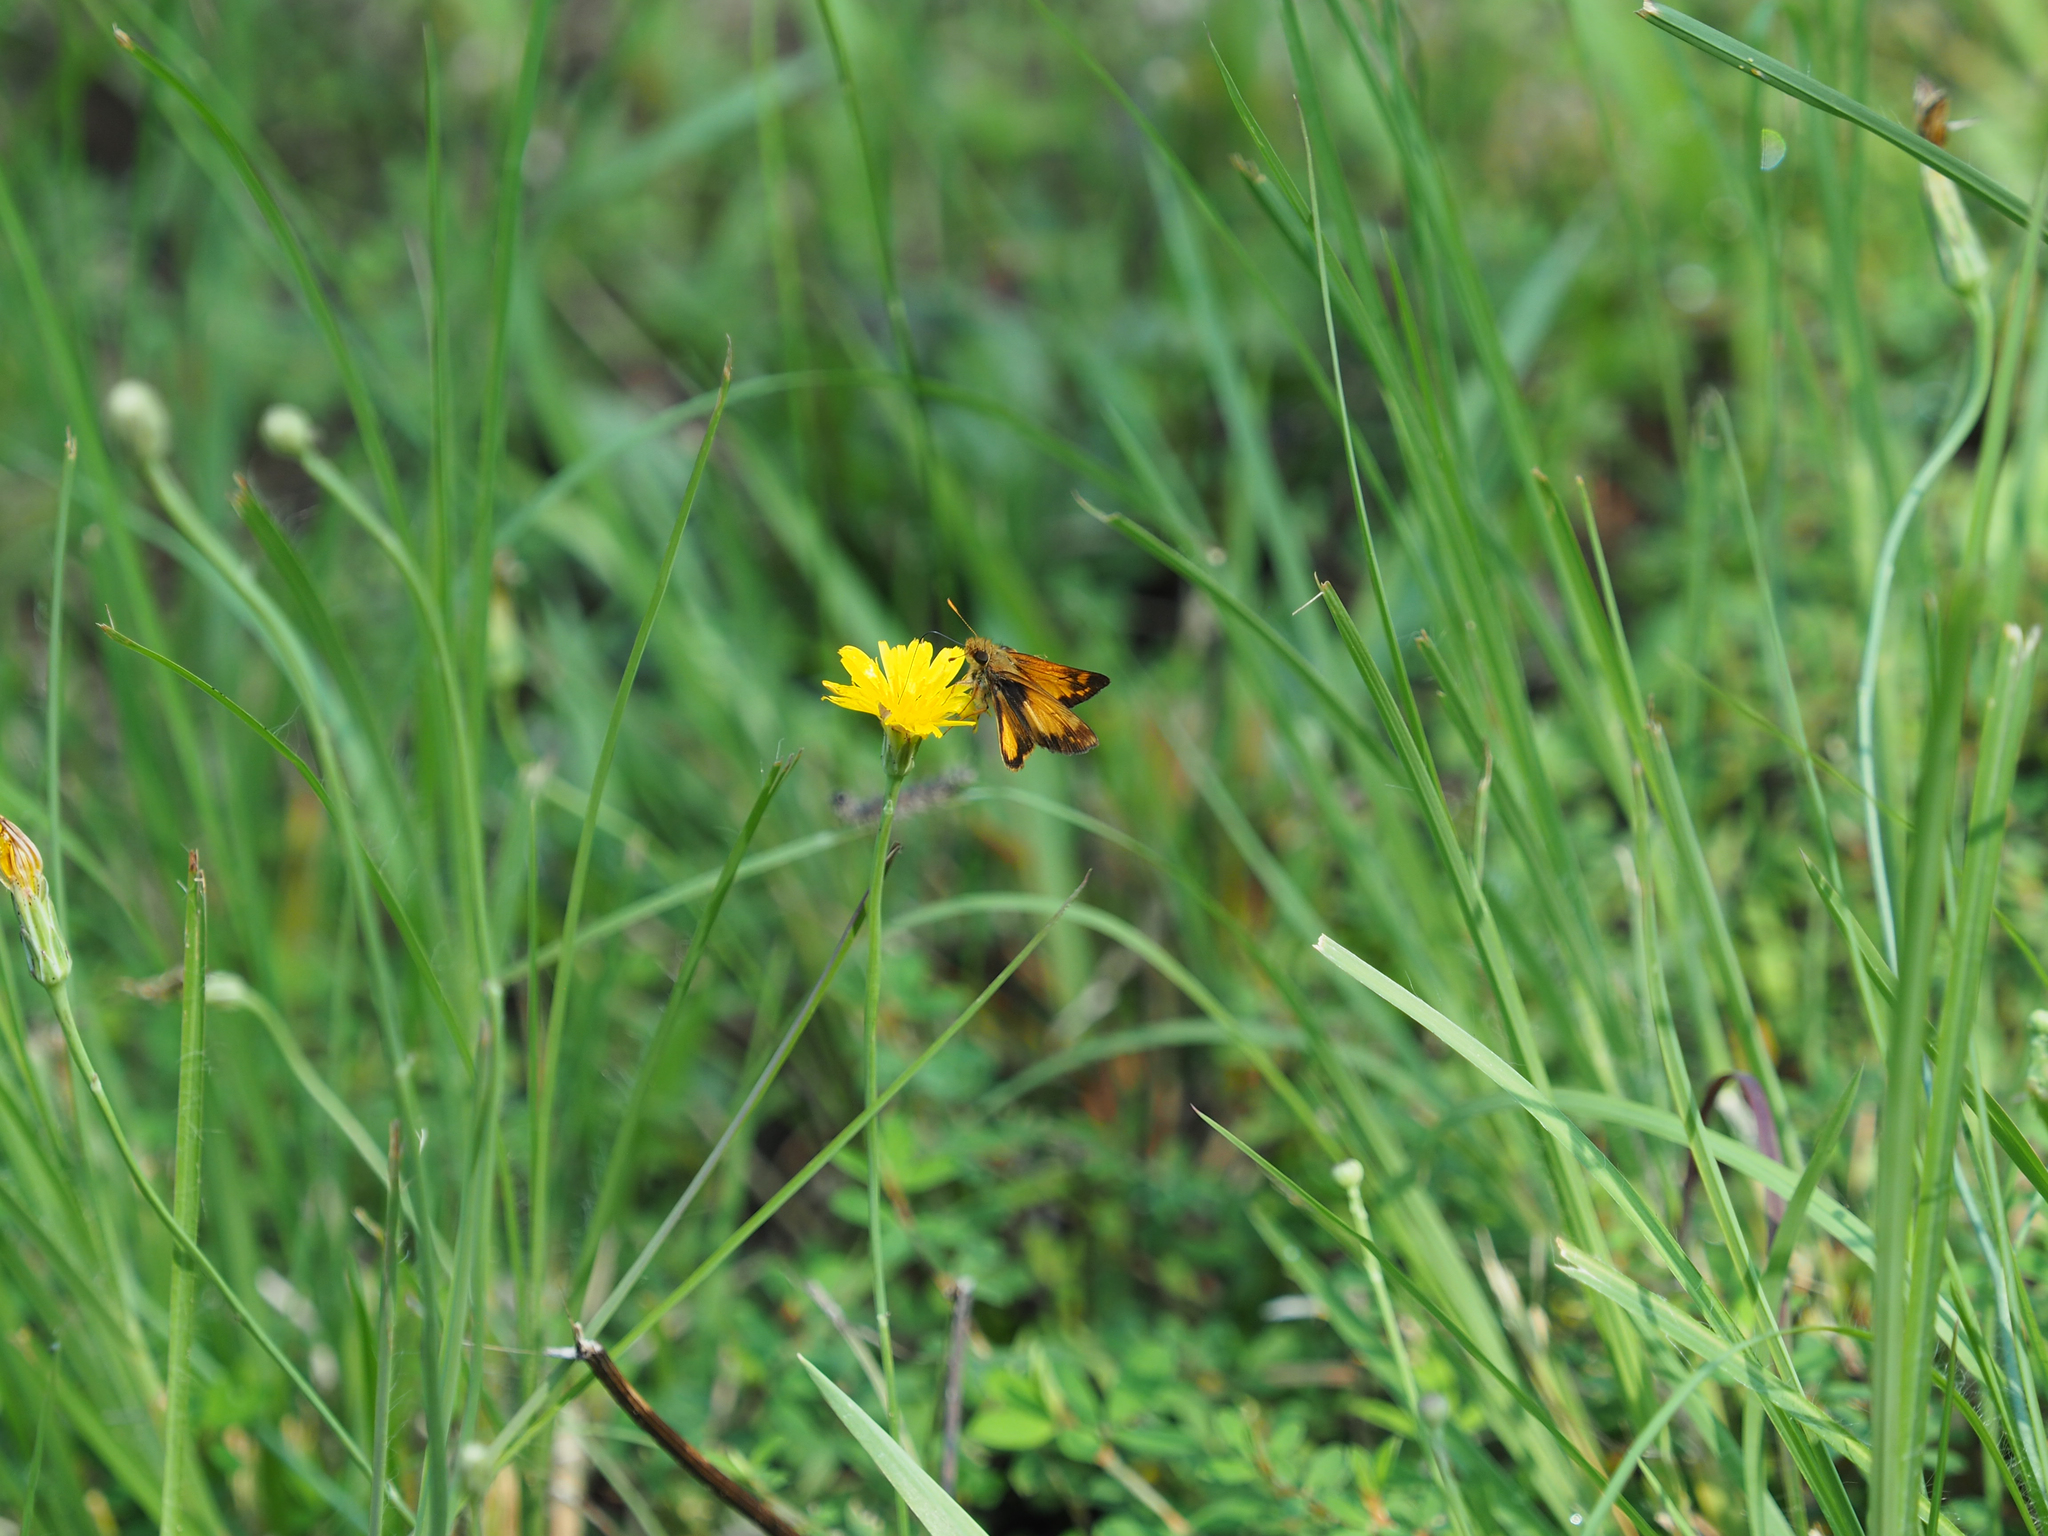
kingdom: Animalia
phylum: Arthropoda
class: Insecta
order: Lepidoptera
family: Hesperiidae
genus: Lon
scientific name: Lon zabulon
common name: Zabulon skipper
